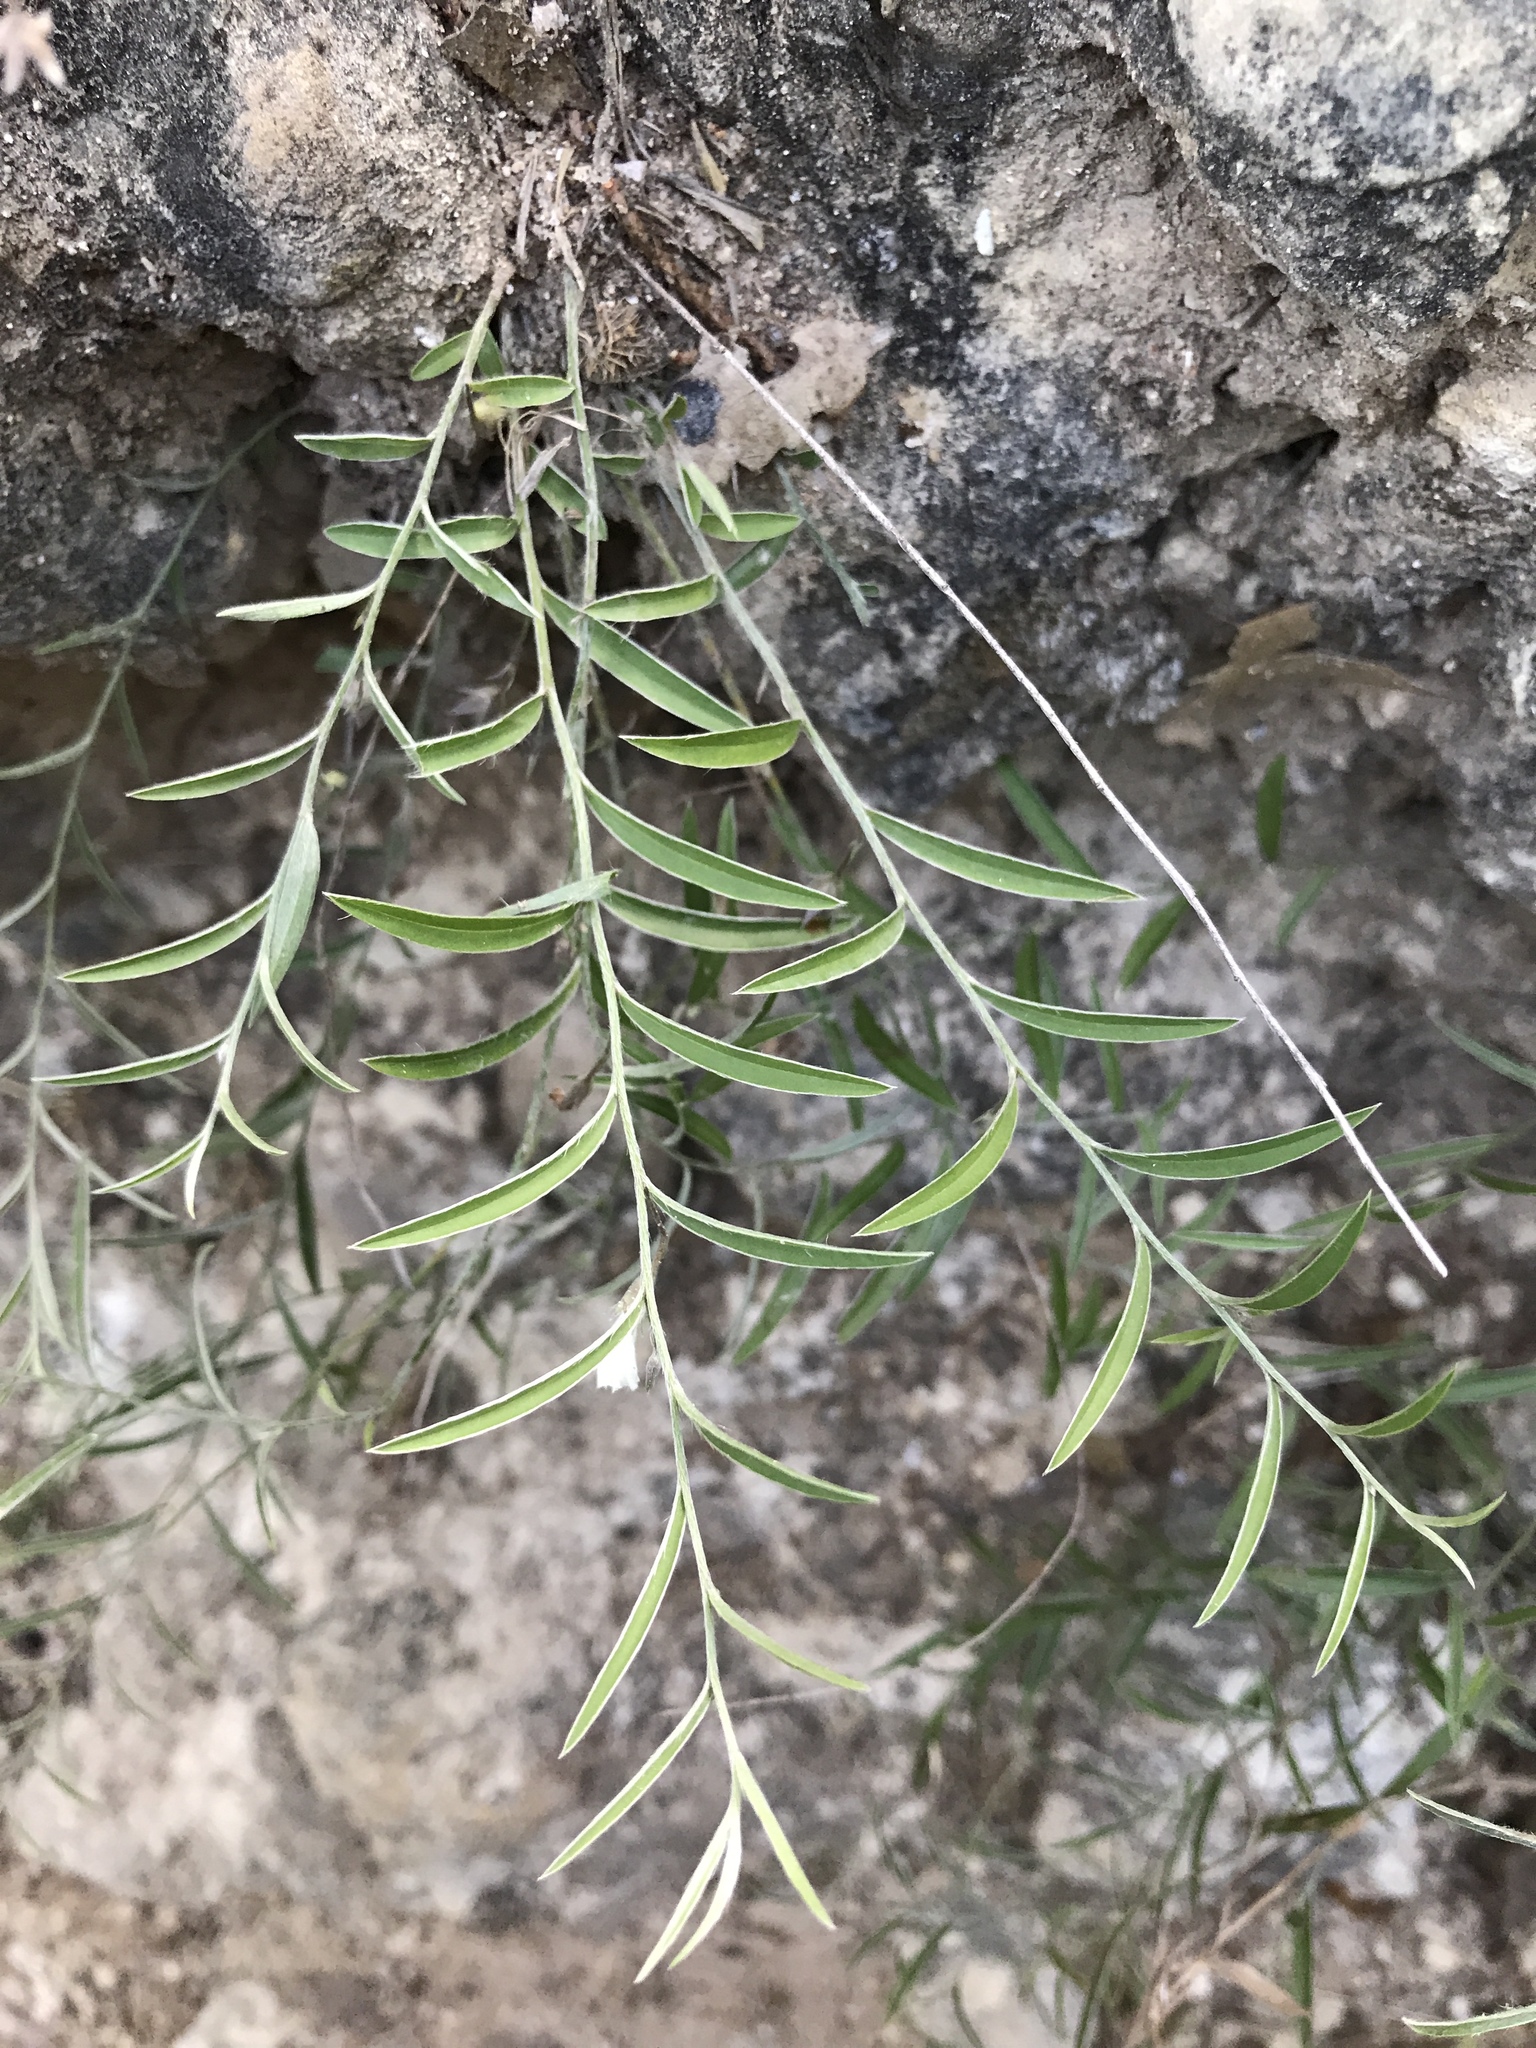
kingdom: Plantae
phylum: Tracheophyta
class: Magnoliopsida
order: Solanales
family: Convolvulaceae
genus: Evolvulus
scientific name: Evolvulus sericeus
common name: Blue dots
